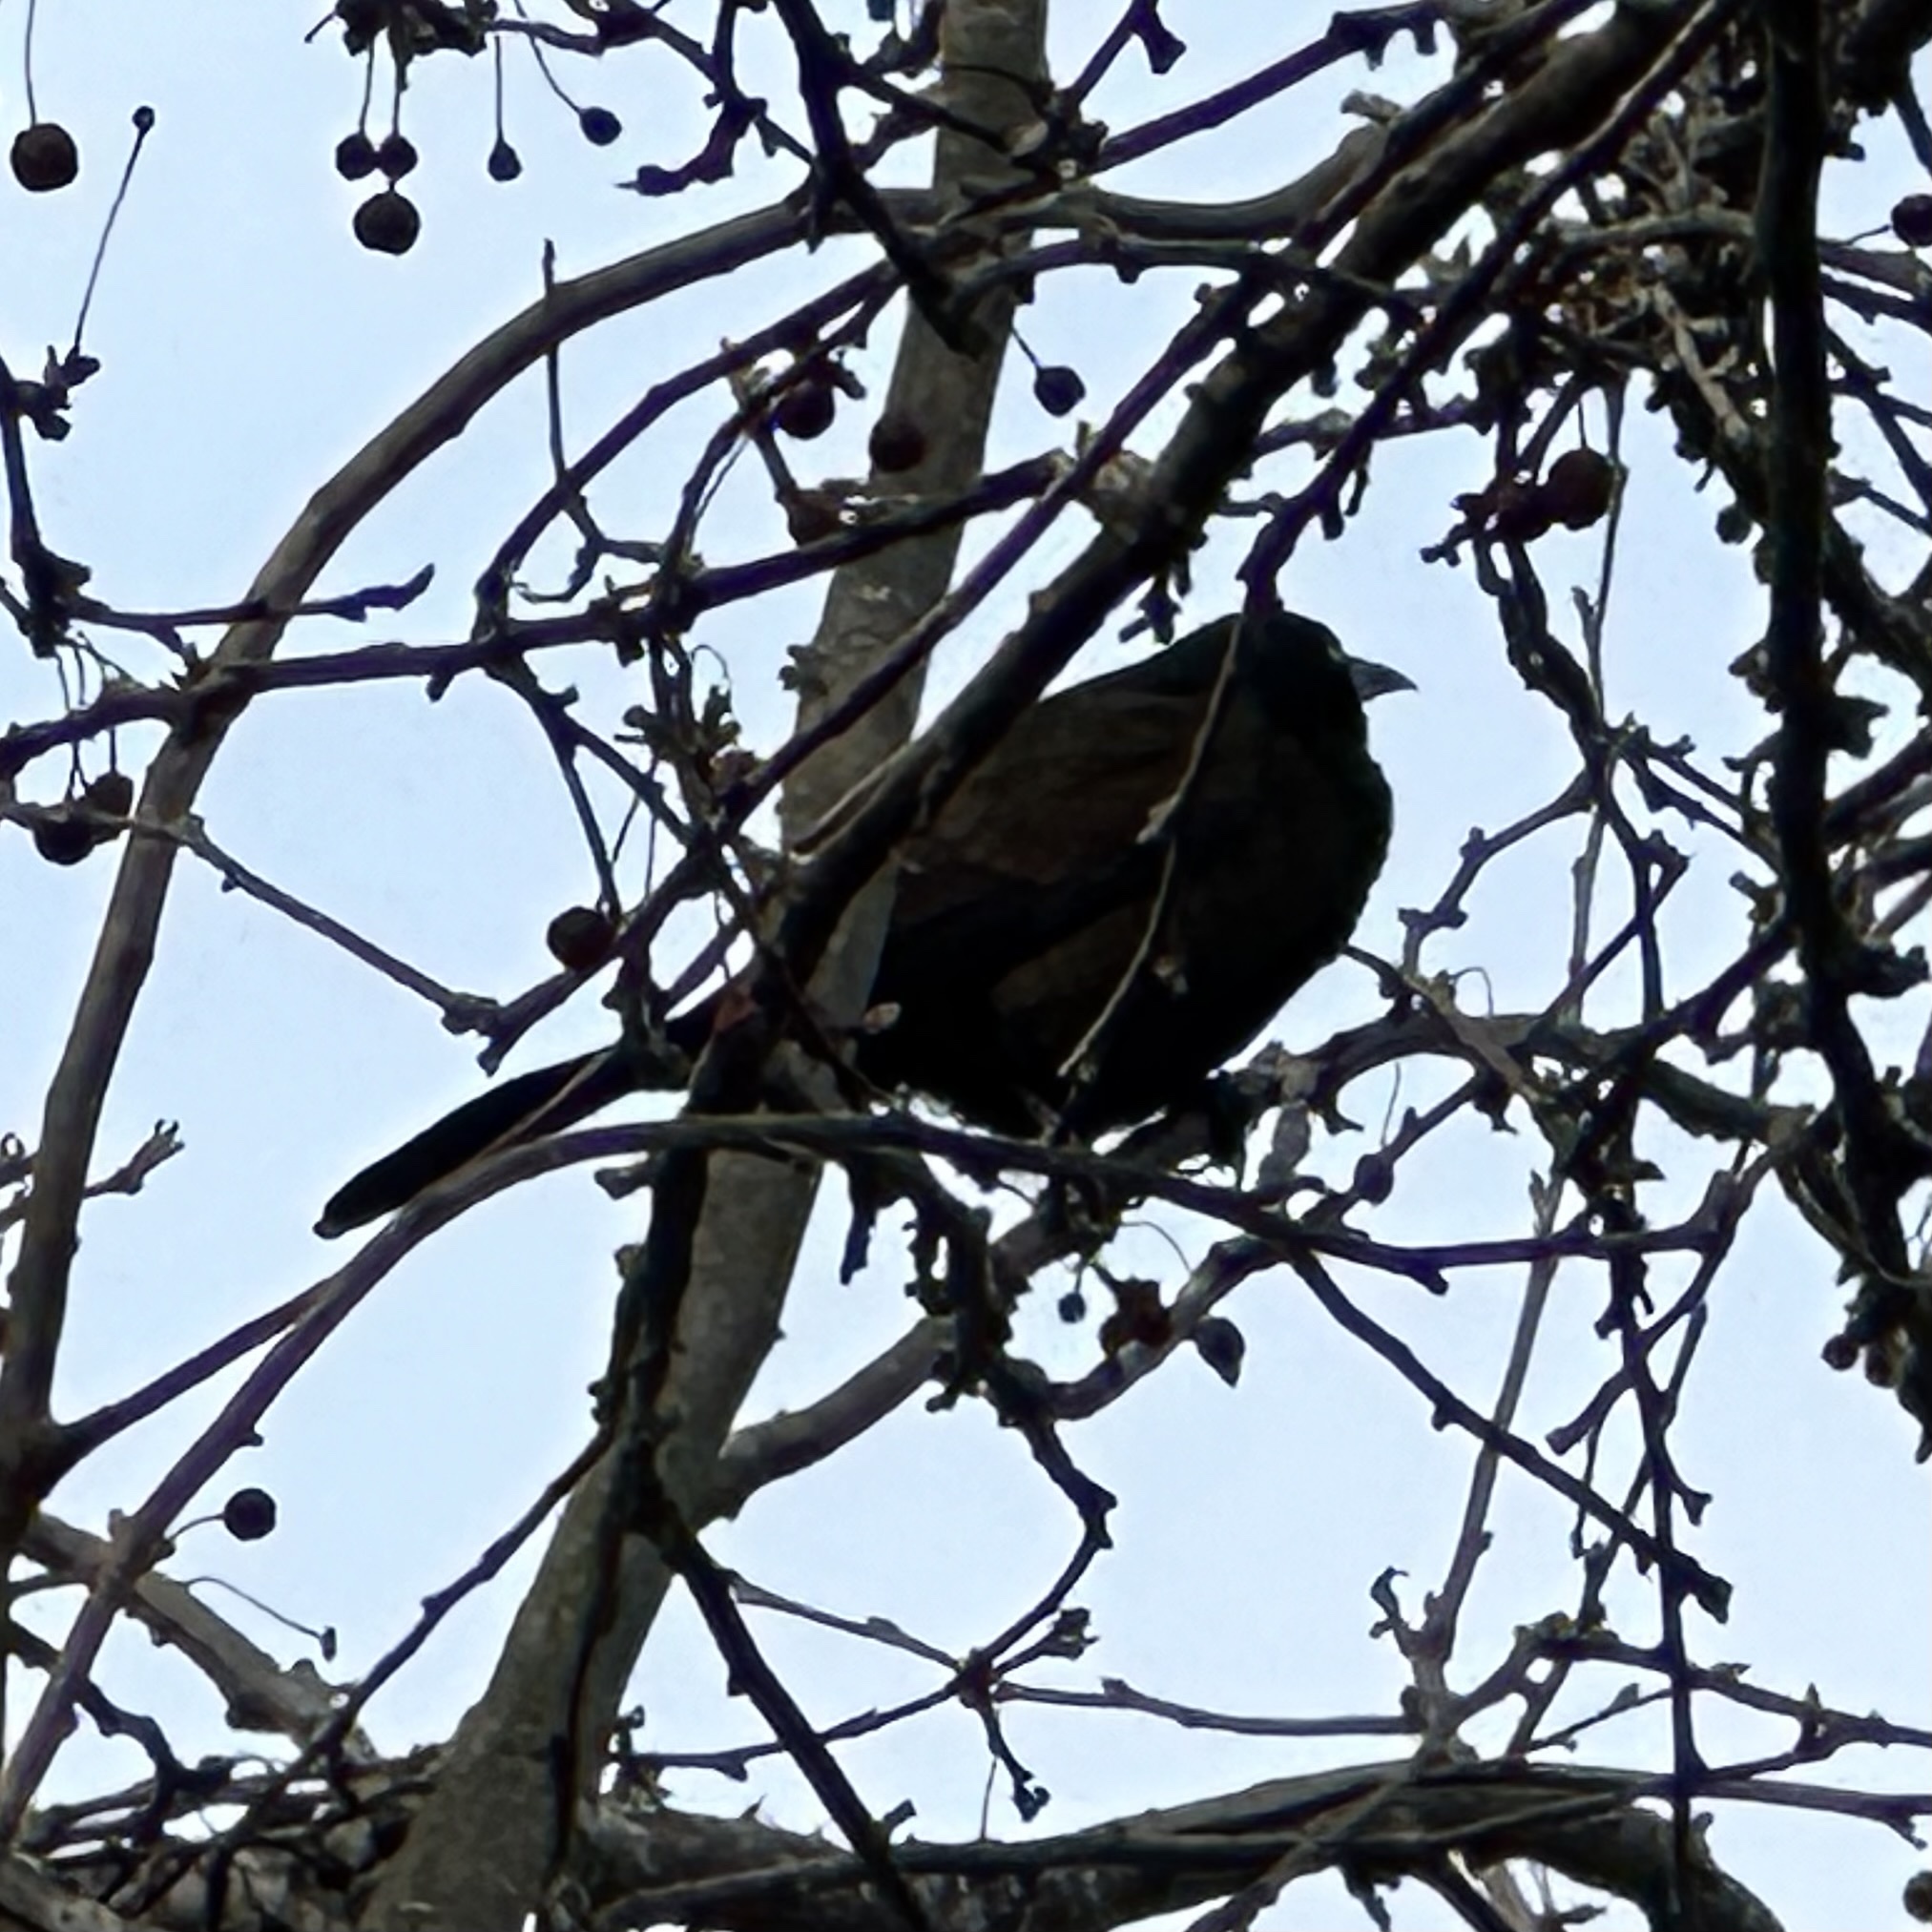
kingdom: Animalia
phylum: Chordata
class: Aves
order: Passeriformes
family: Icteridae
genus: Quiscalus
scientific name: Quiscalus quiscula
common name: Common grackle
